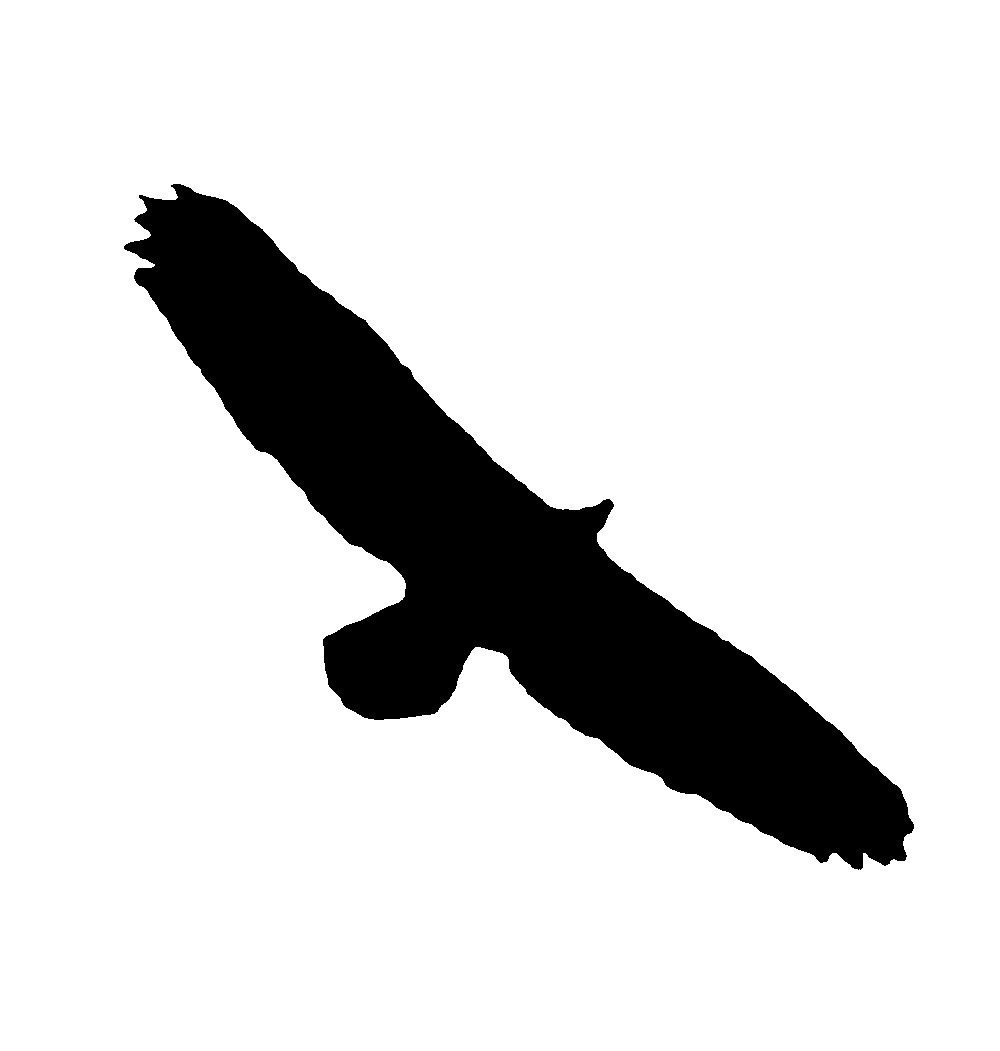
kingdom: Animalia
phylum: Chordata
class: Aves
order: Accipitriformes
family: Accipitridae
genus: Haliaeetus
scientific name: Haliaeetus leucocephalus
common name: Bald eagle
